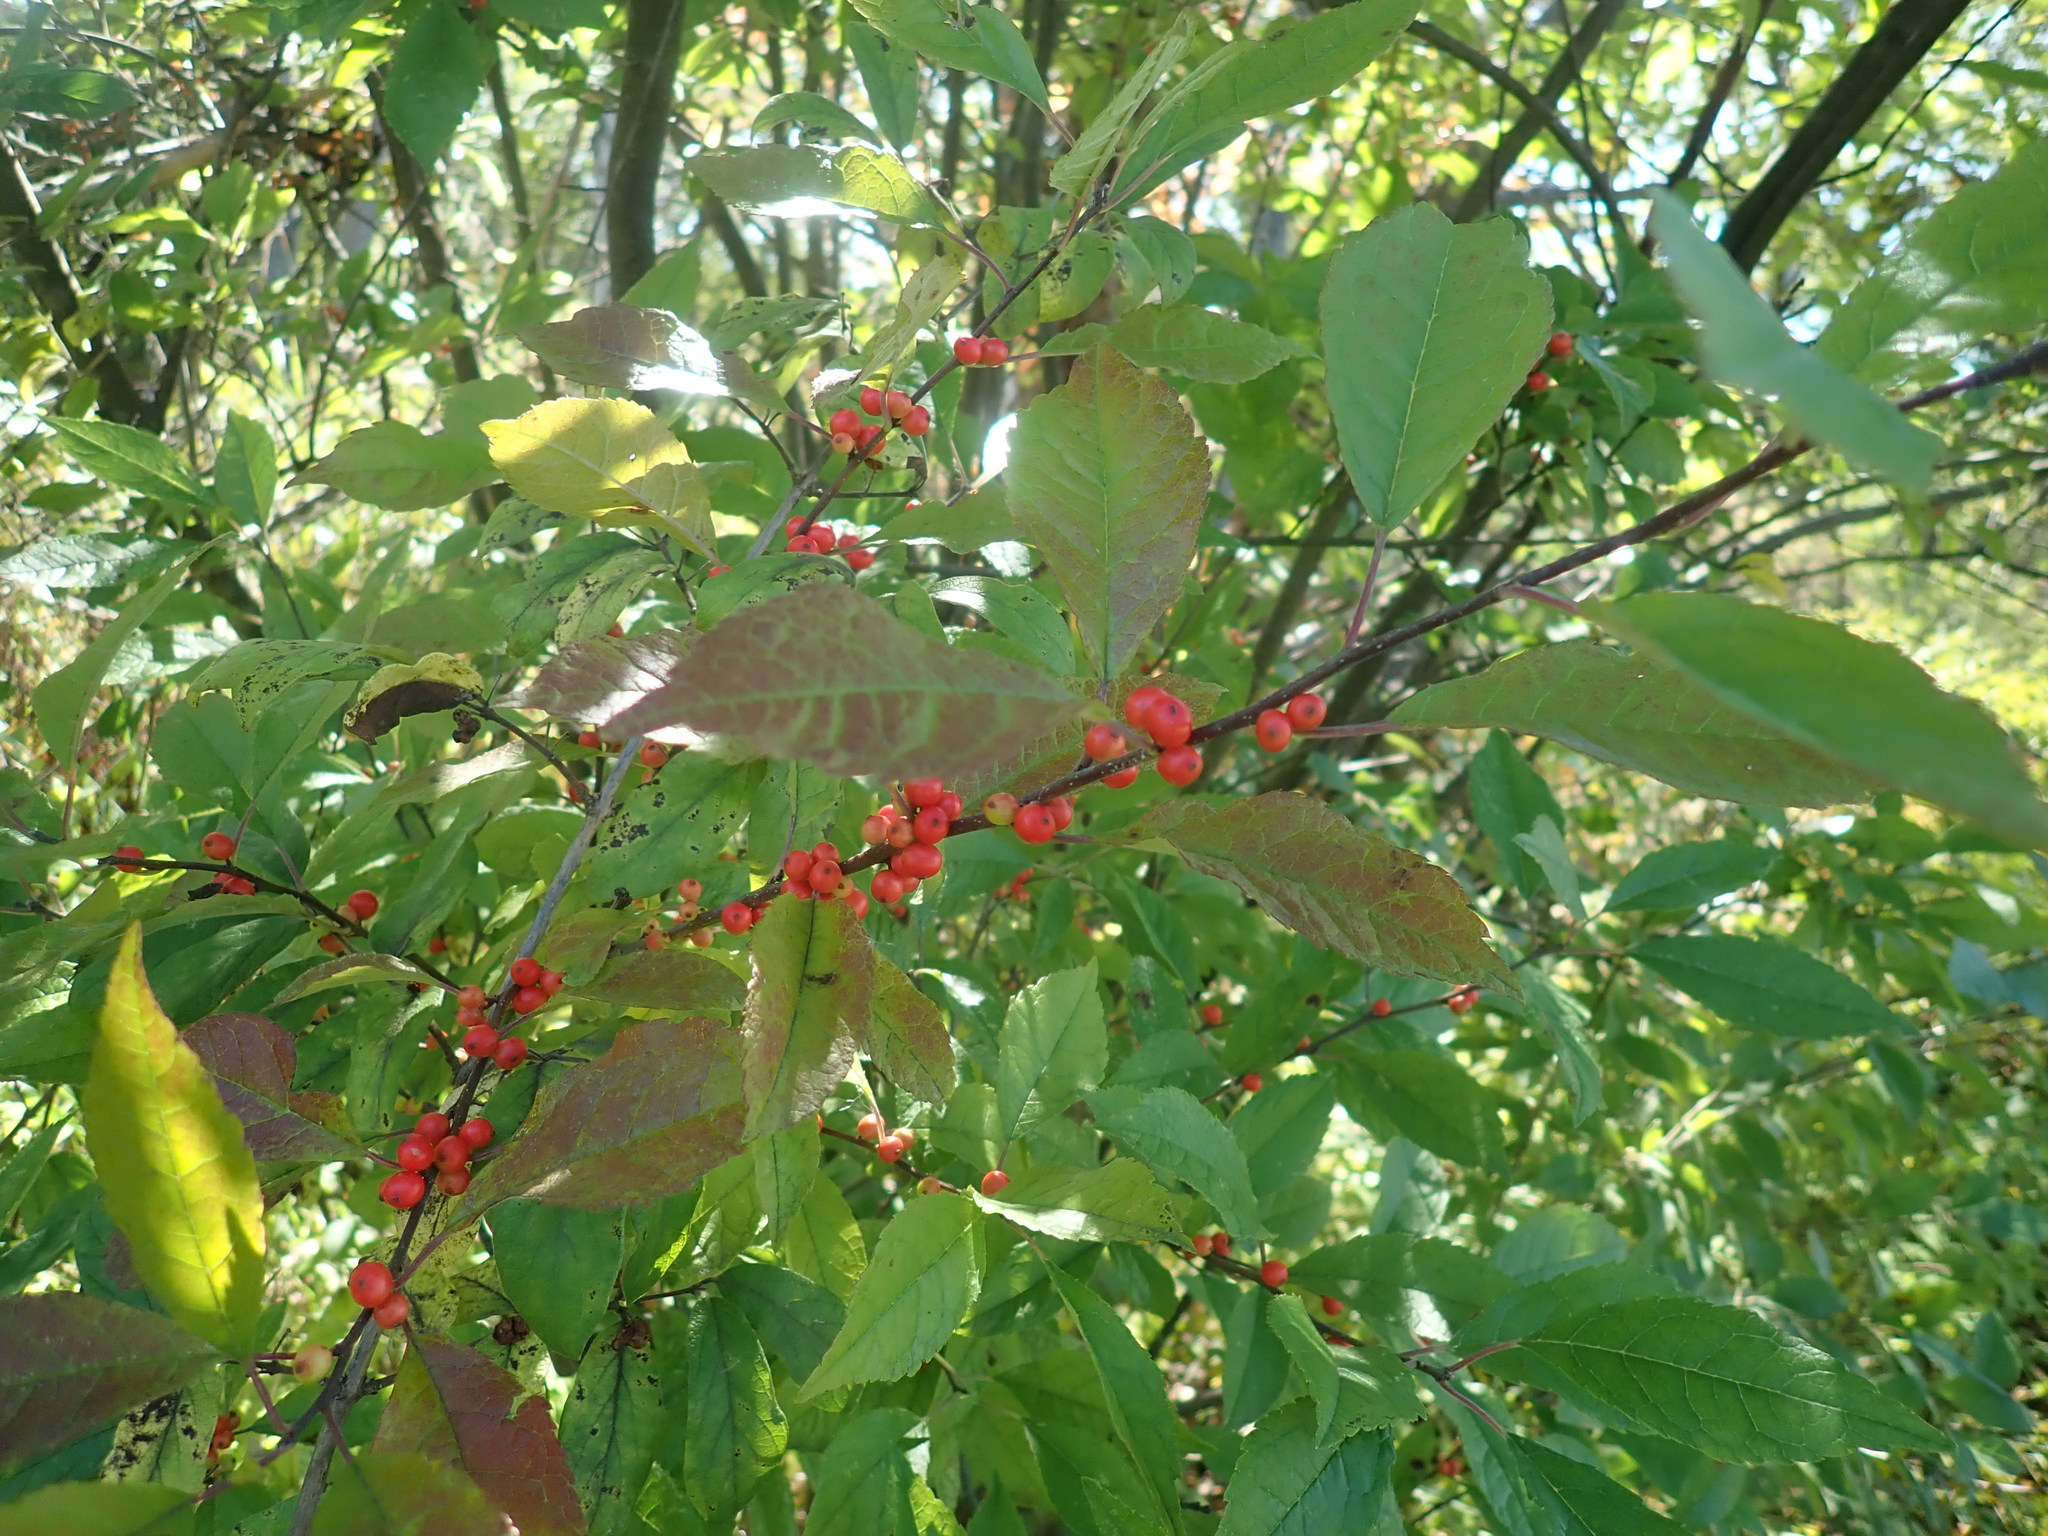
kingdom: Plantae
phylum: Tracheophyta
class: Magnoliopsida
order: Aquifoliales
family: Aquifoliaceae
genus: Ilex
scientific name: Ilex verticillata
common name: Virginia winterberry
